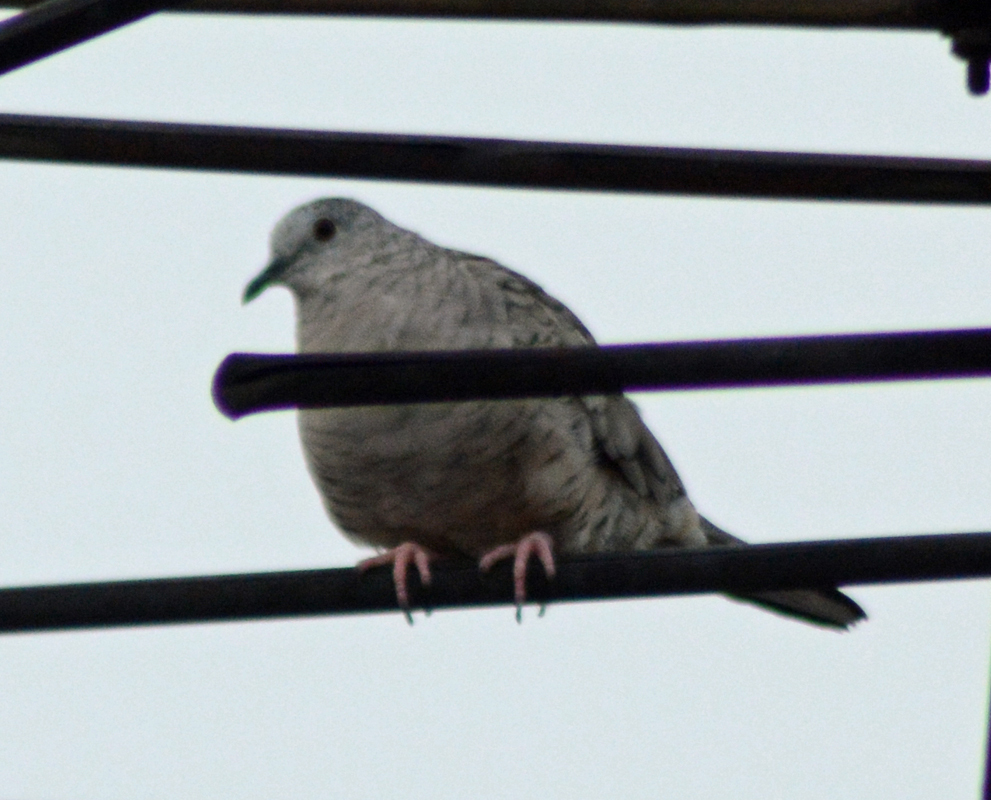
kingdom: Animalia
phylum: Chordata
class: Aves
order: Columbiformes
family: Columbidae
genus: Columbina
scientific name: Columbina inca
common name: Inca dove
